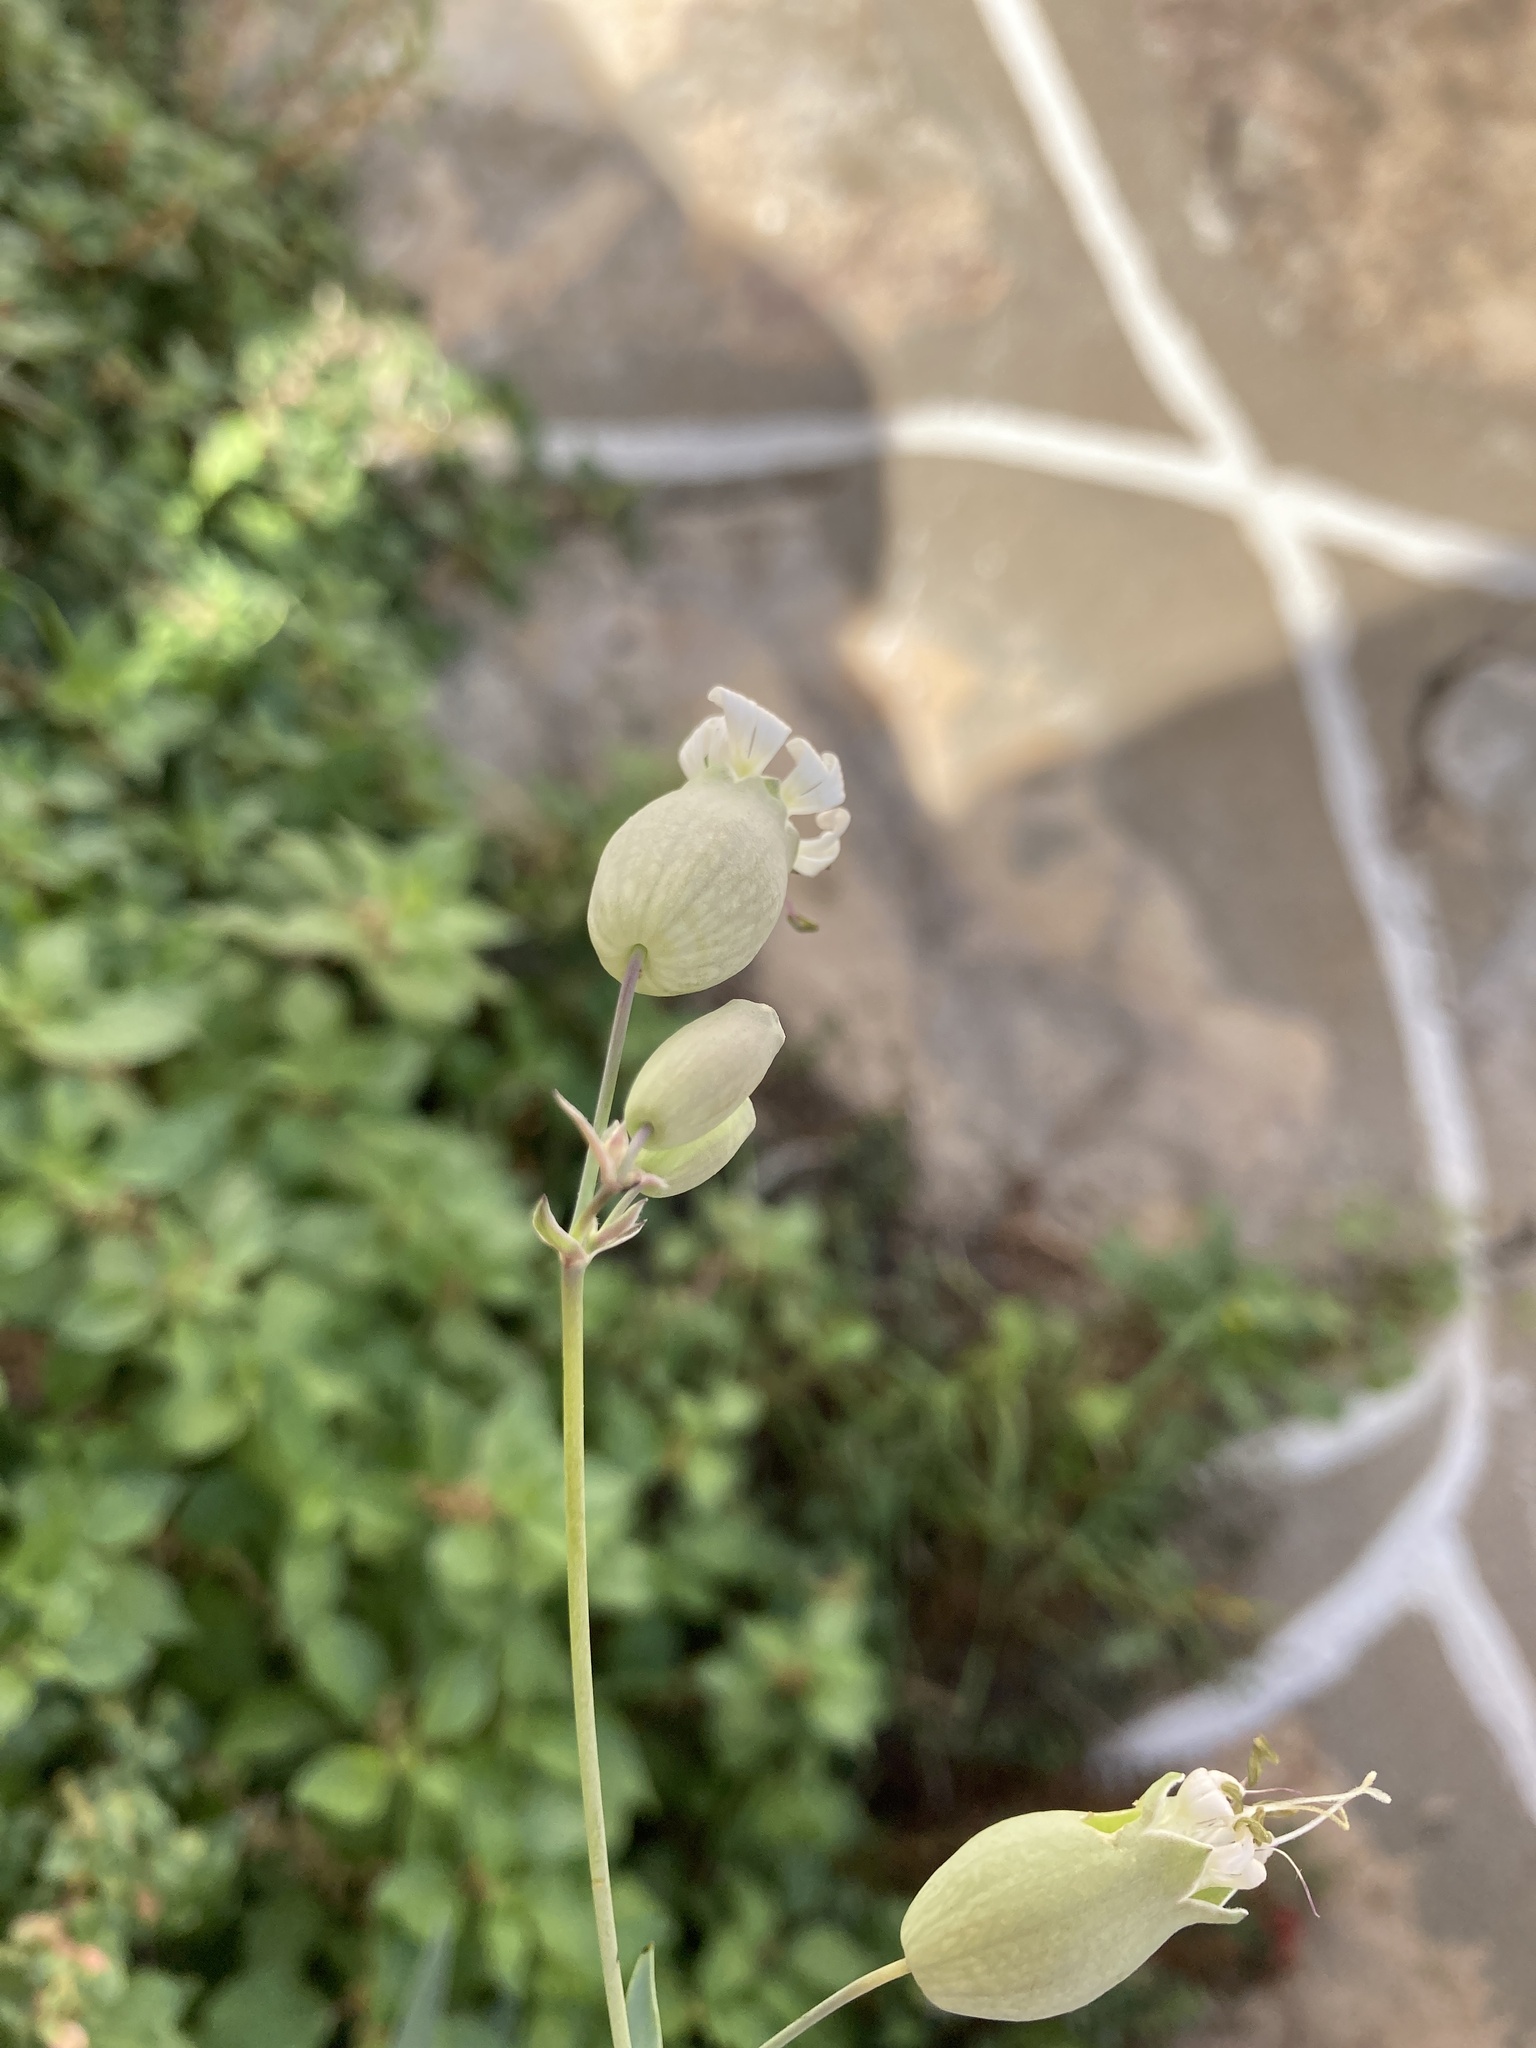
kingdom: Plantae
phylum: Tracheophyta
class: Magnoliopsida
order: Caryophyllales
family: Caryophyllaceae
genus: Silene
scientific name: Silene vulgaris
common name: Bladder campion
